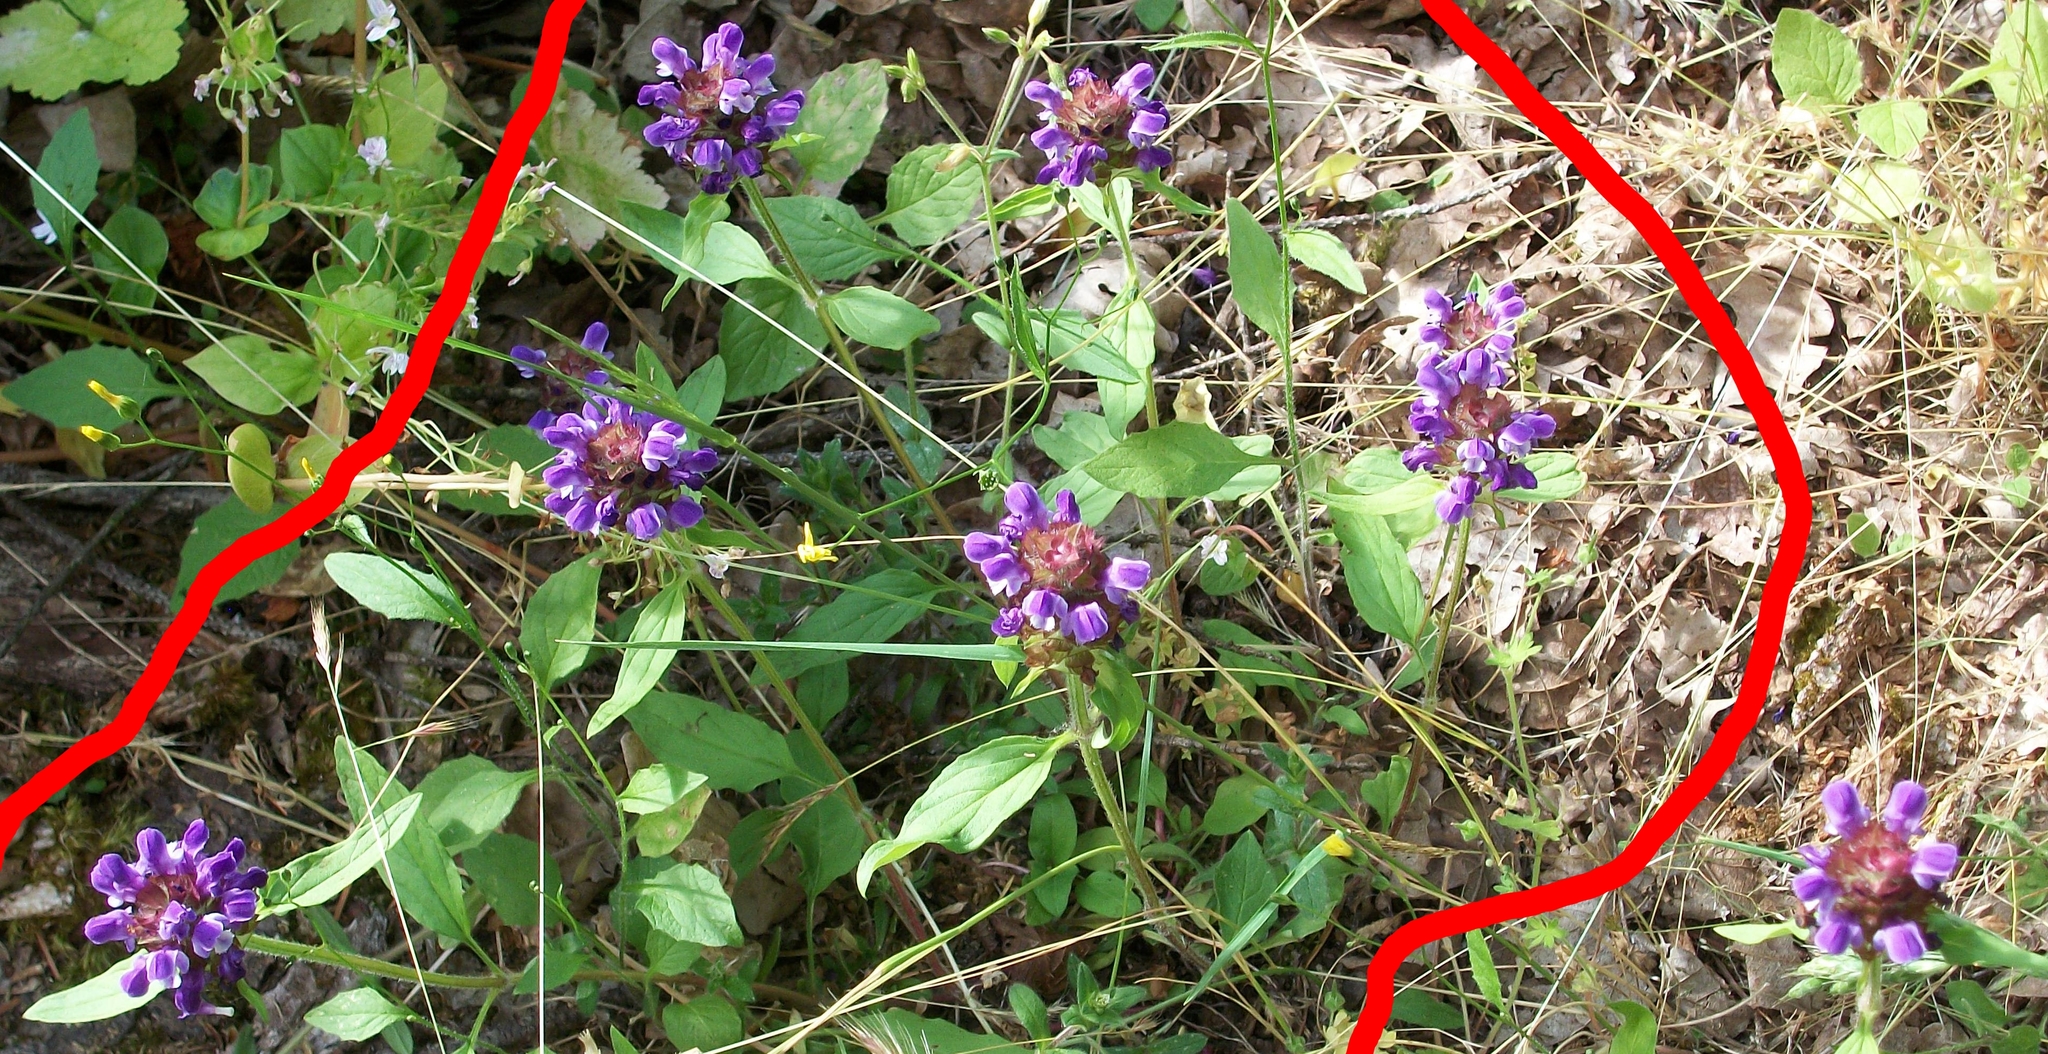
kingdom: Plantae
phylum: Tracheophyta
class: Magnoliopsida
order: Lamiales
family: Lamiaceae
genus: Prunella
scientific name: Prunella vulgaris
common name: Heal-all
